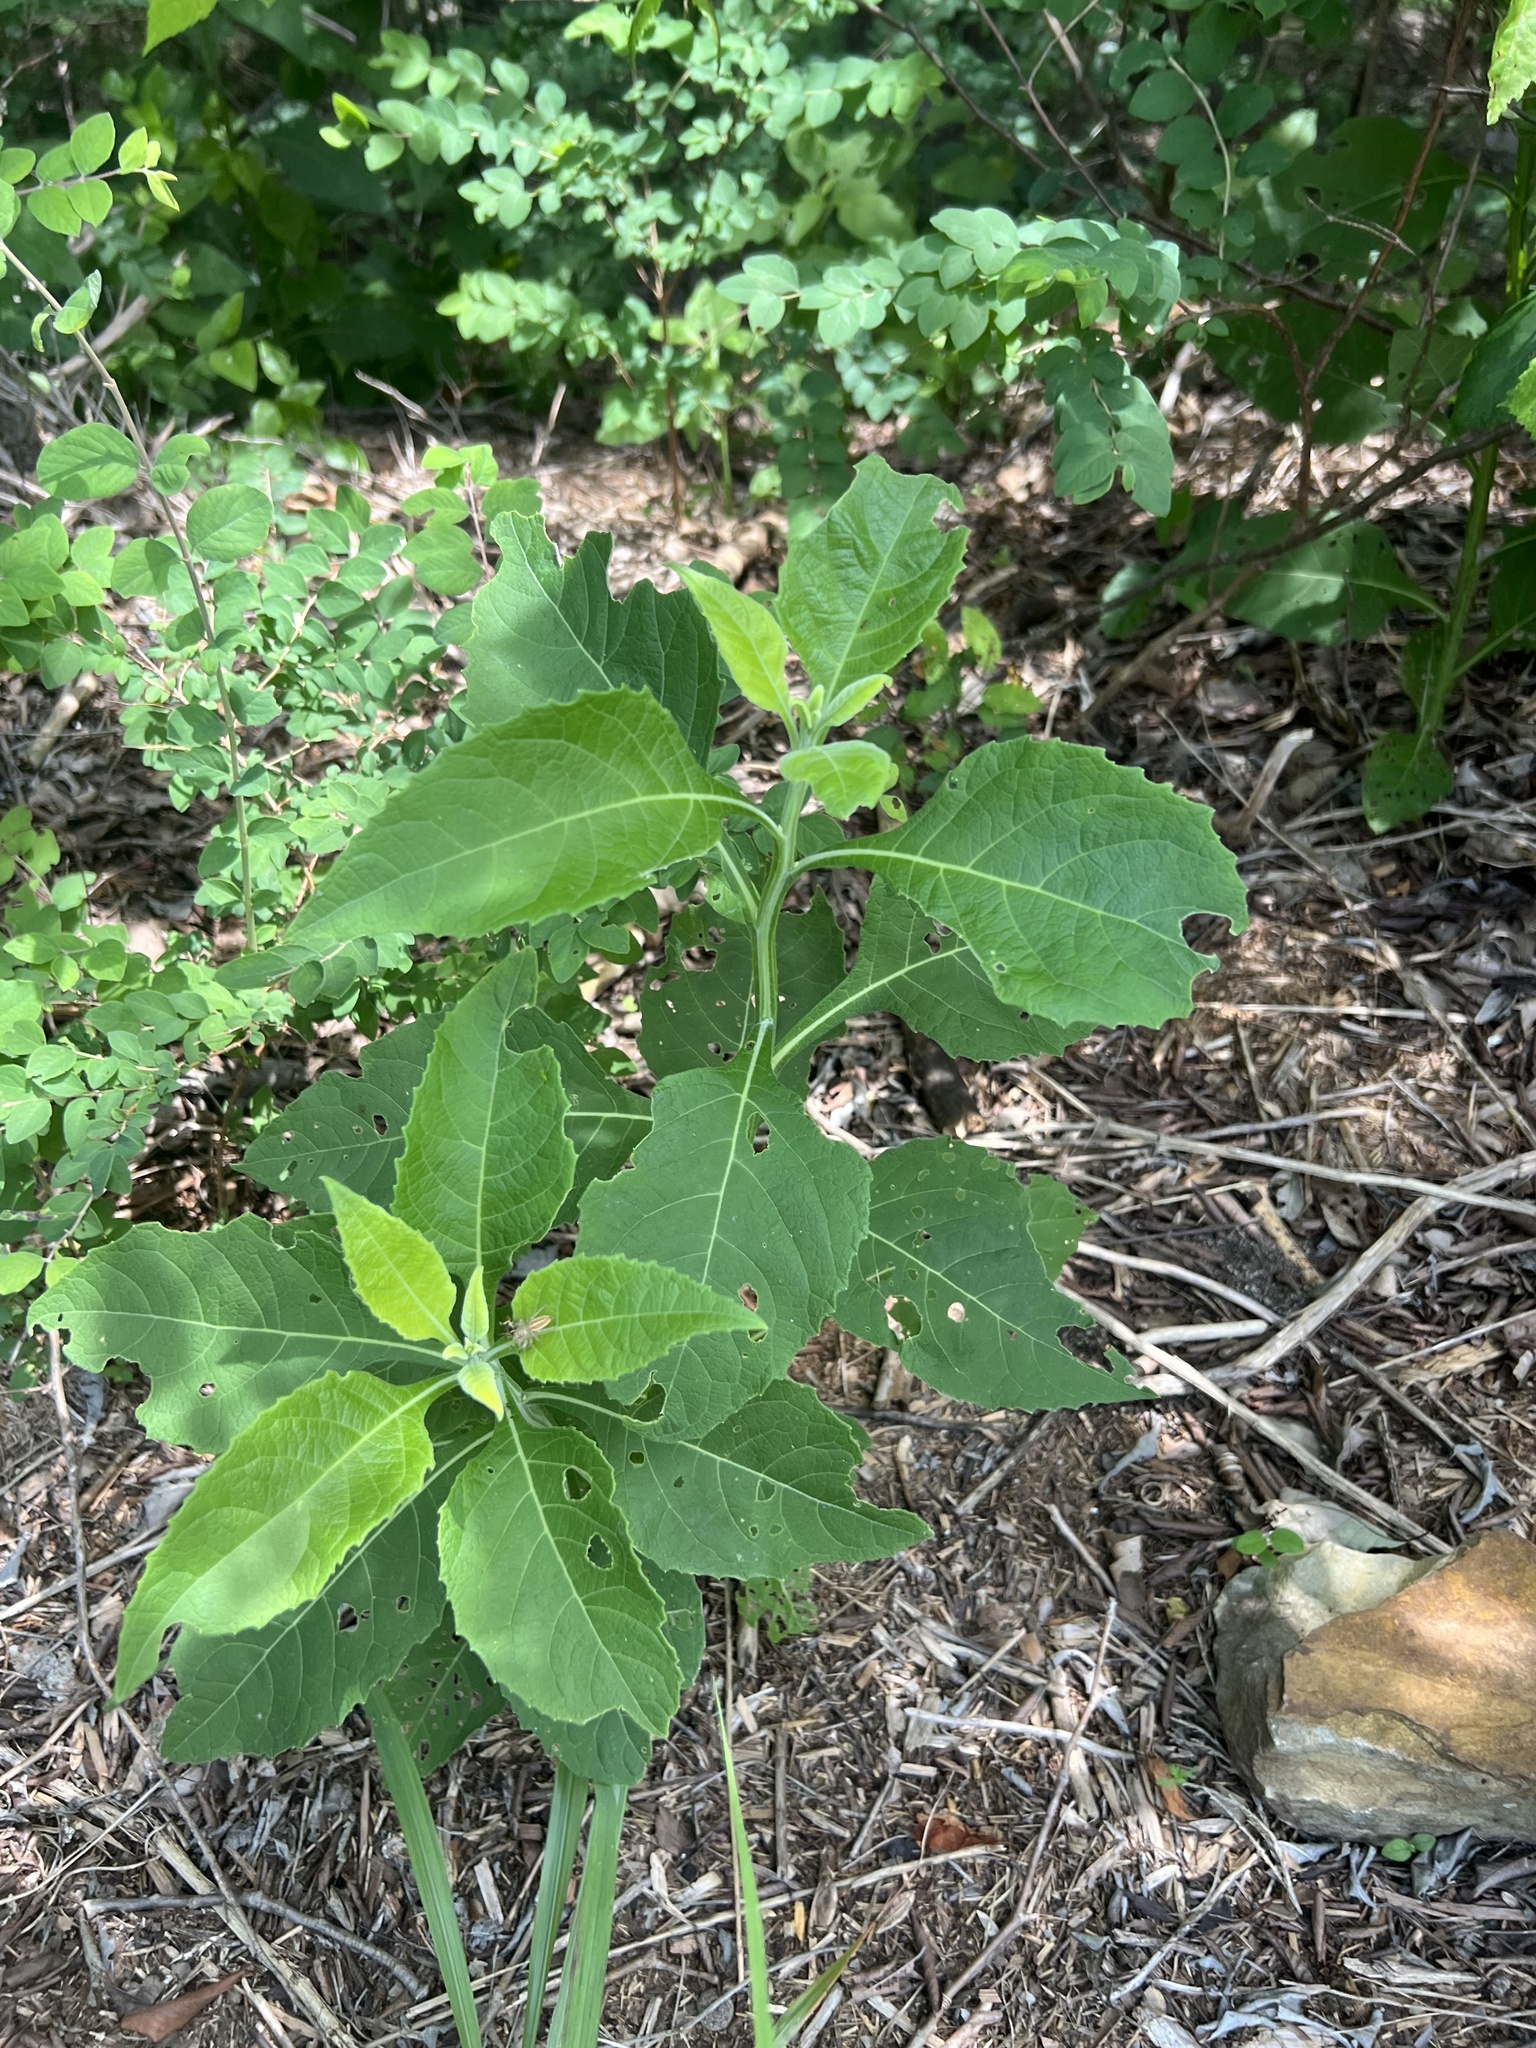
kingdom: Plantae
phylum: Tracheophyta
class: Magnoliopsida
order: Asterales
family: Asteraceae
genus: Verbesina
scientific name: Verbesina virginica
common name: Frostweed
